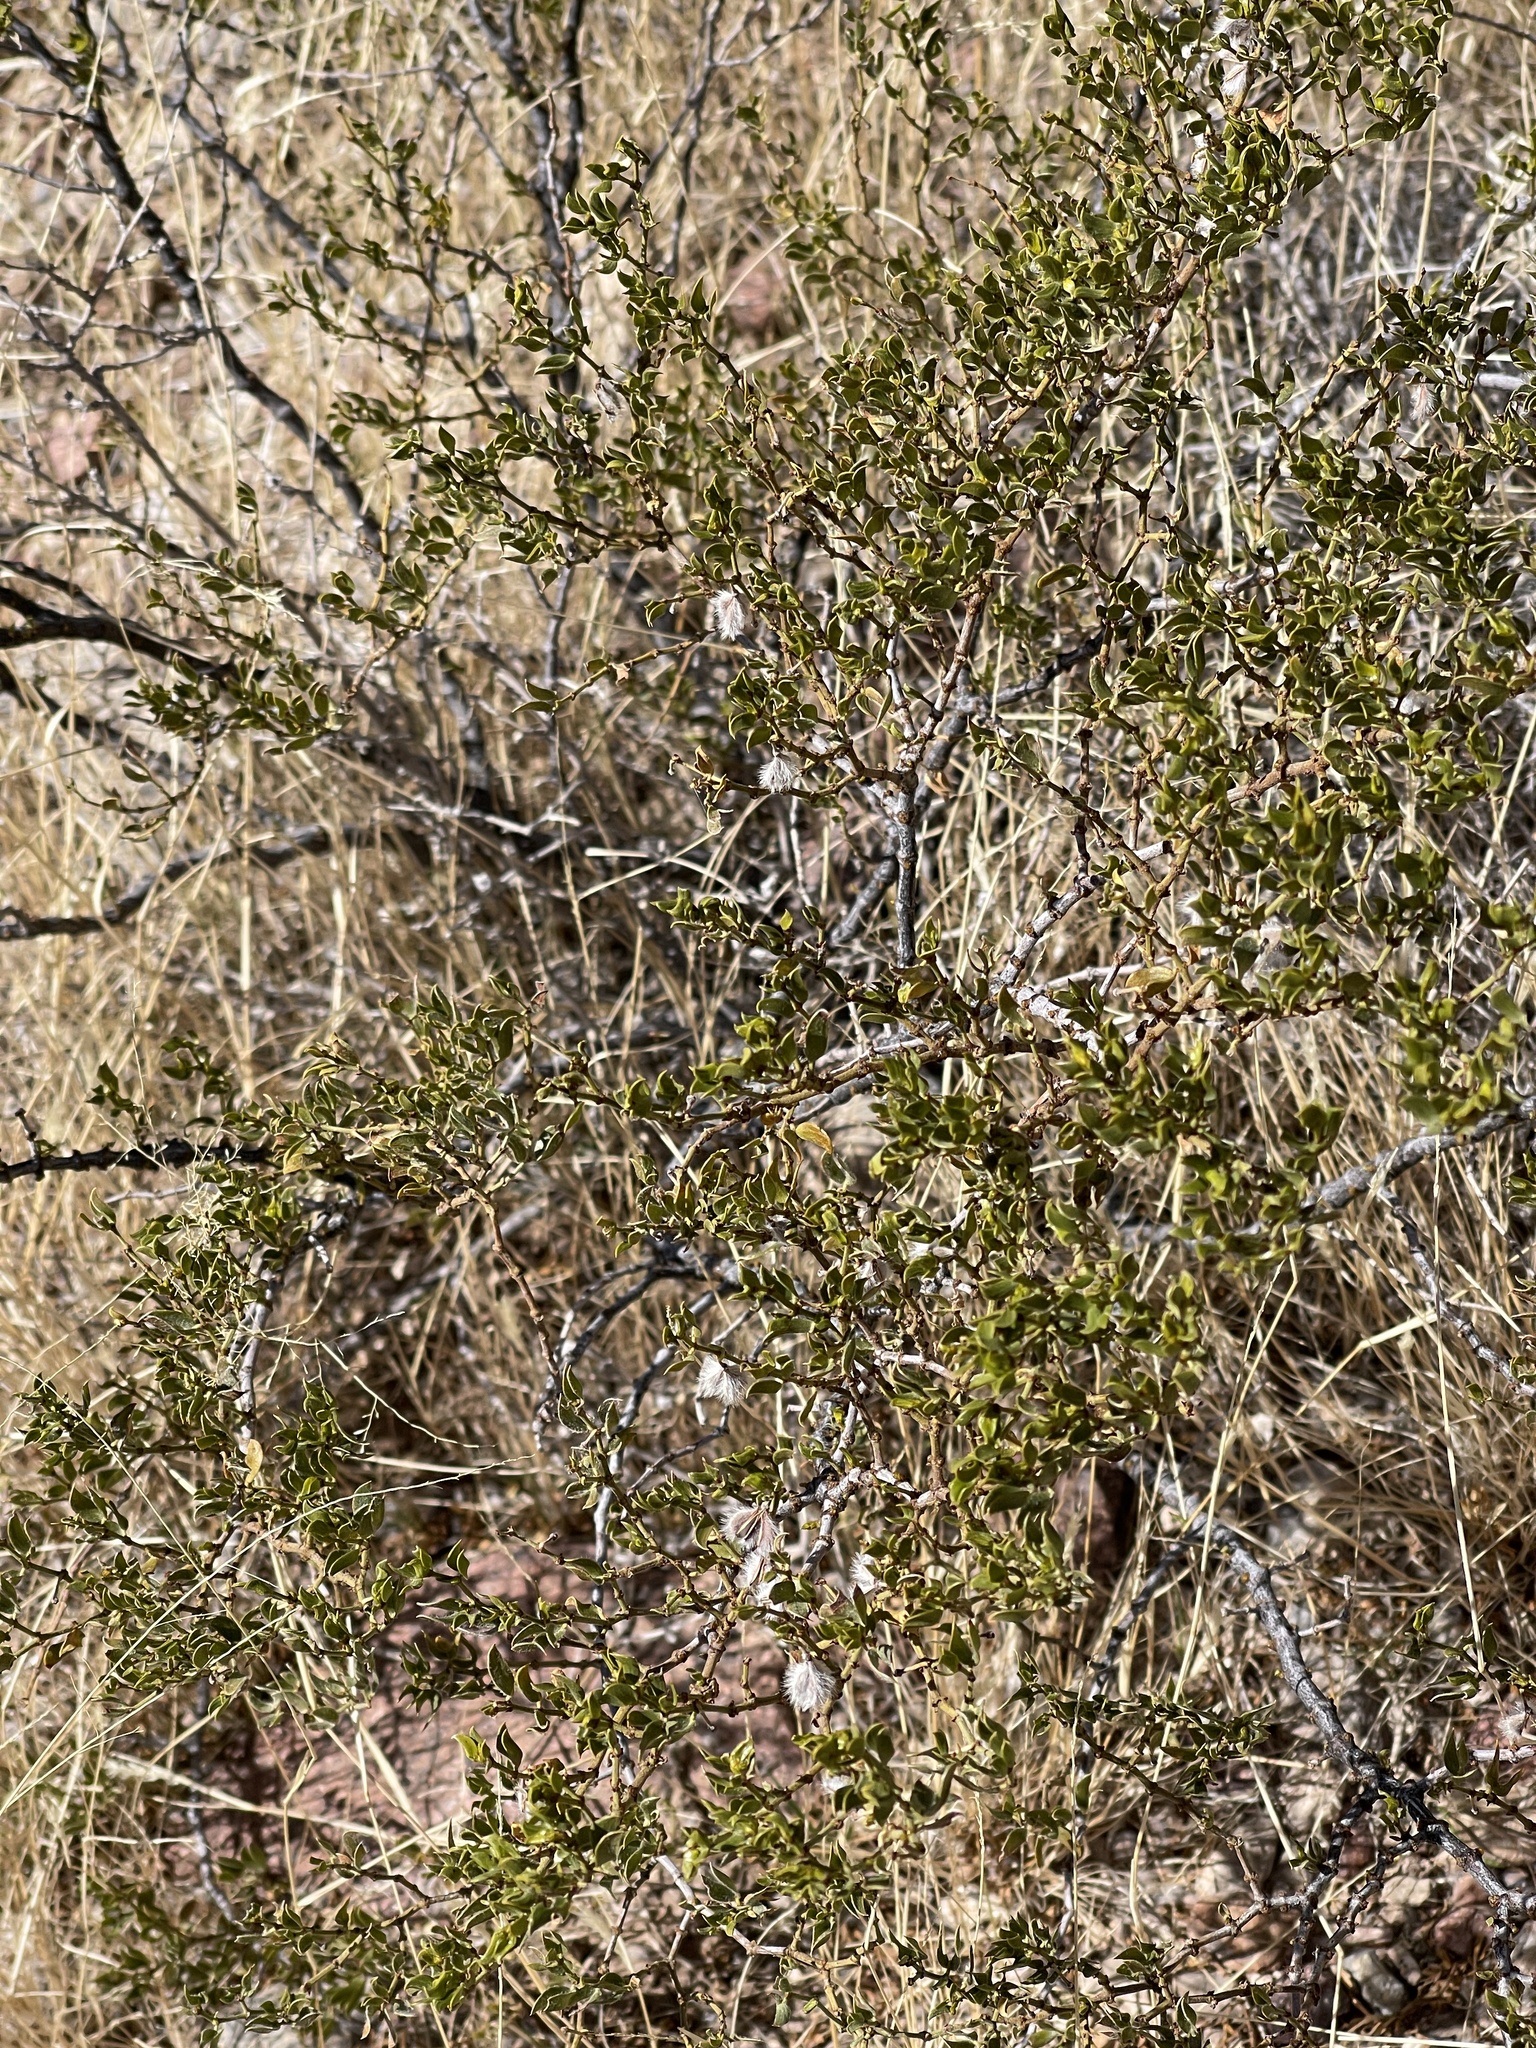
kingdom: Plantae
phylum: Tracheophyta
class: Magnoliopsida
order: Zygophyllales
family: Zygophyllaceae
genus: Larrea
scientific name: Larrea tridentata
